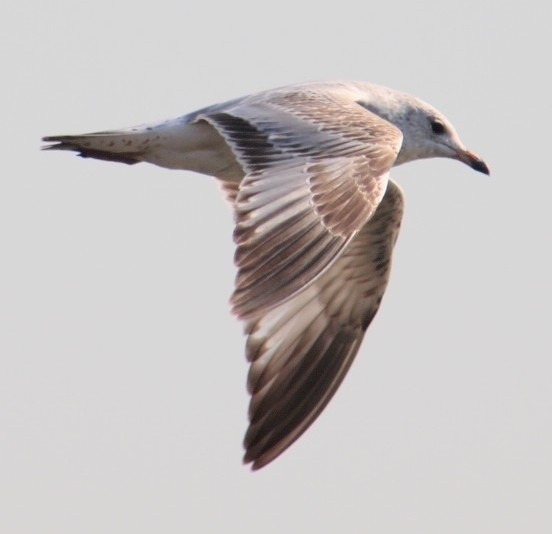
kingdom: Animalia
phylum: Chordata
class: Aves
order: Charadriiformes
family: Laridae
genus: Larus
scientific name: Larus delawarensis
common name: Ring-billed gull
